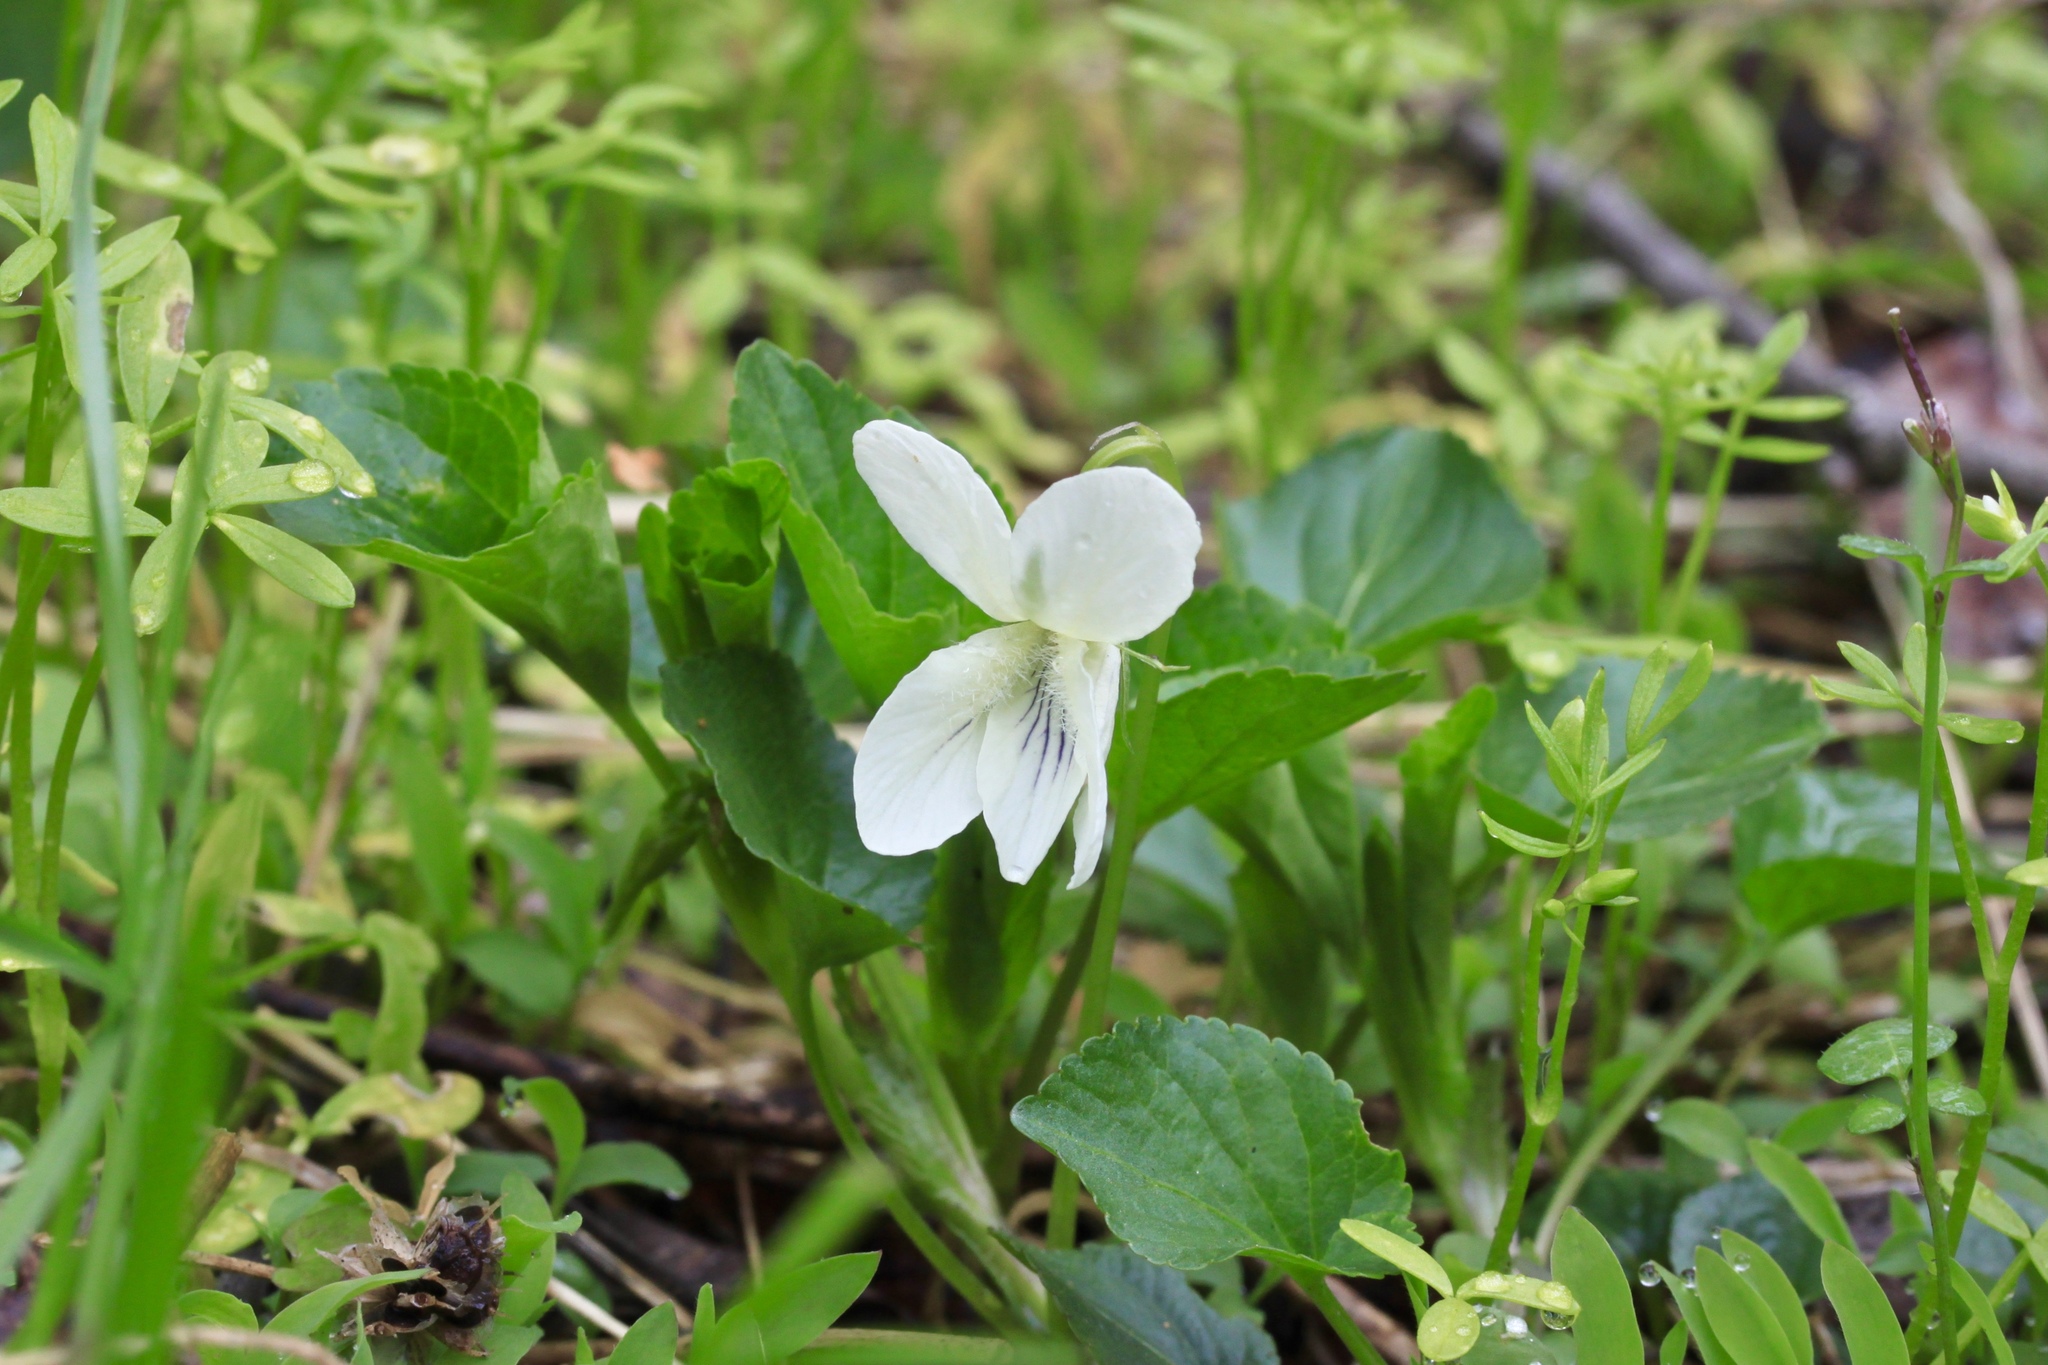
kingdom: Plantae
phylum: Tracheophyta
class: Magnoliopsida
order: Malpighiales
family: Violaceae
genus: Viola
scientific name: Viola striata
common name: Cream violet
